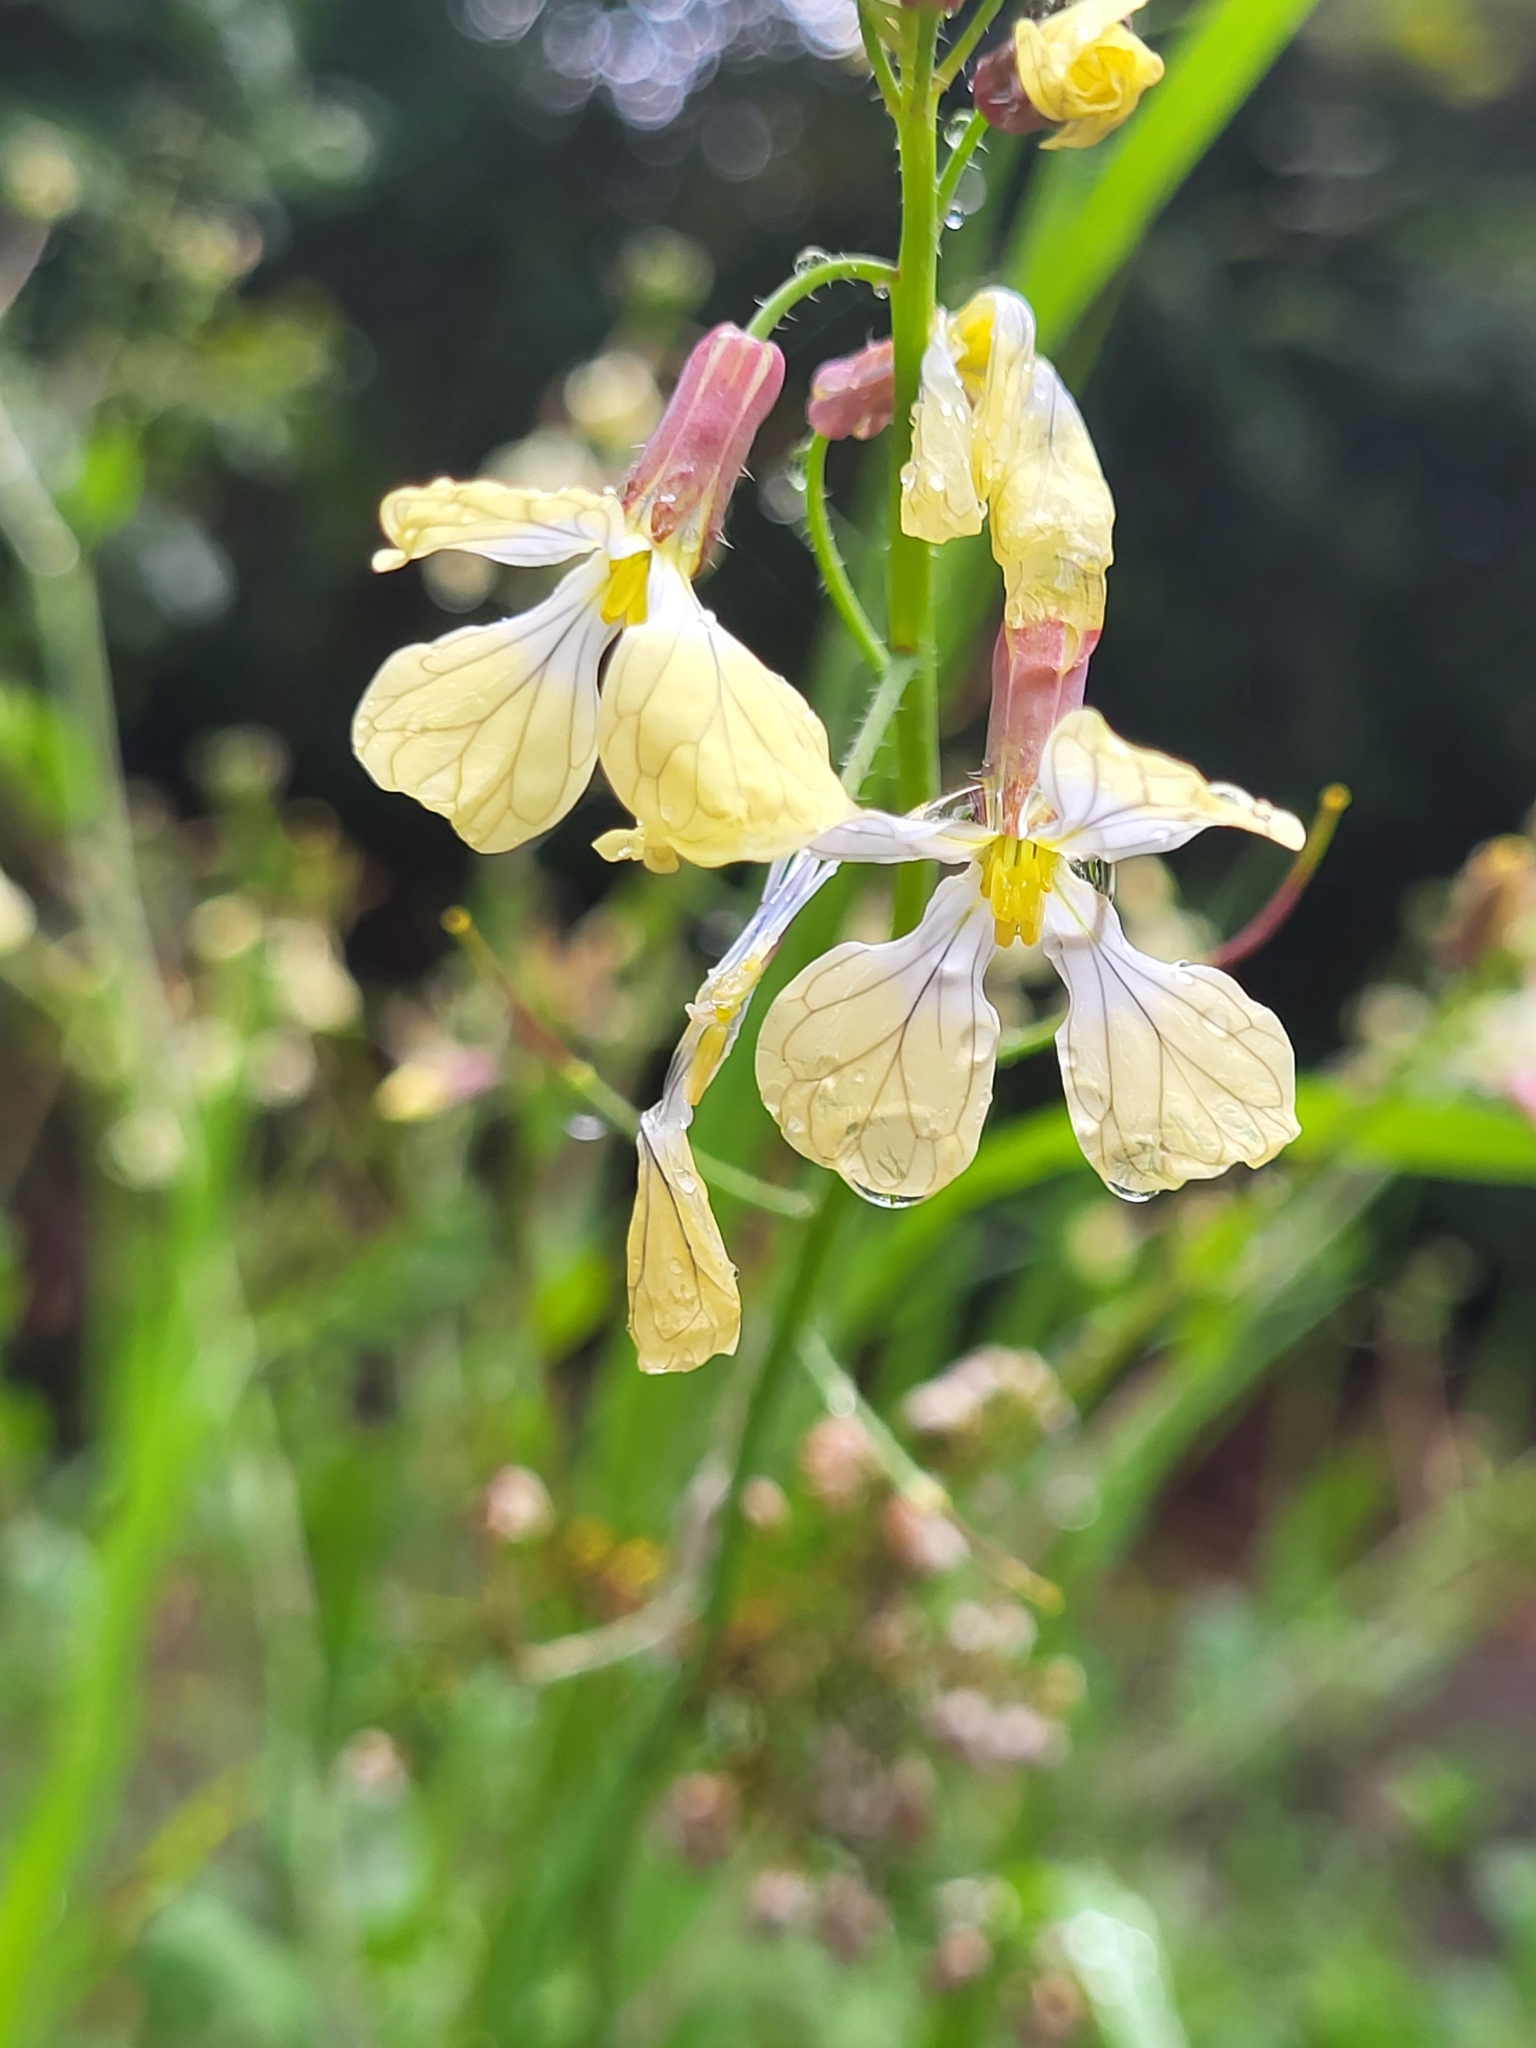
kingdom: Plantae
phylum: Tracheophyta
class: Magnoliopsida
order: Brassicales
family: Brassicaceae
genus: Raphanus
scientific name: Raphanus raphanistrum
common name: Wild radish
